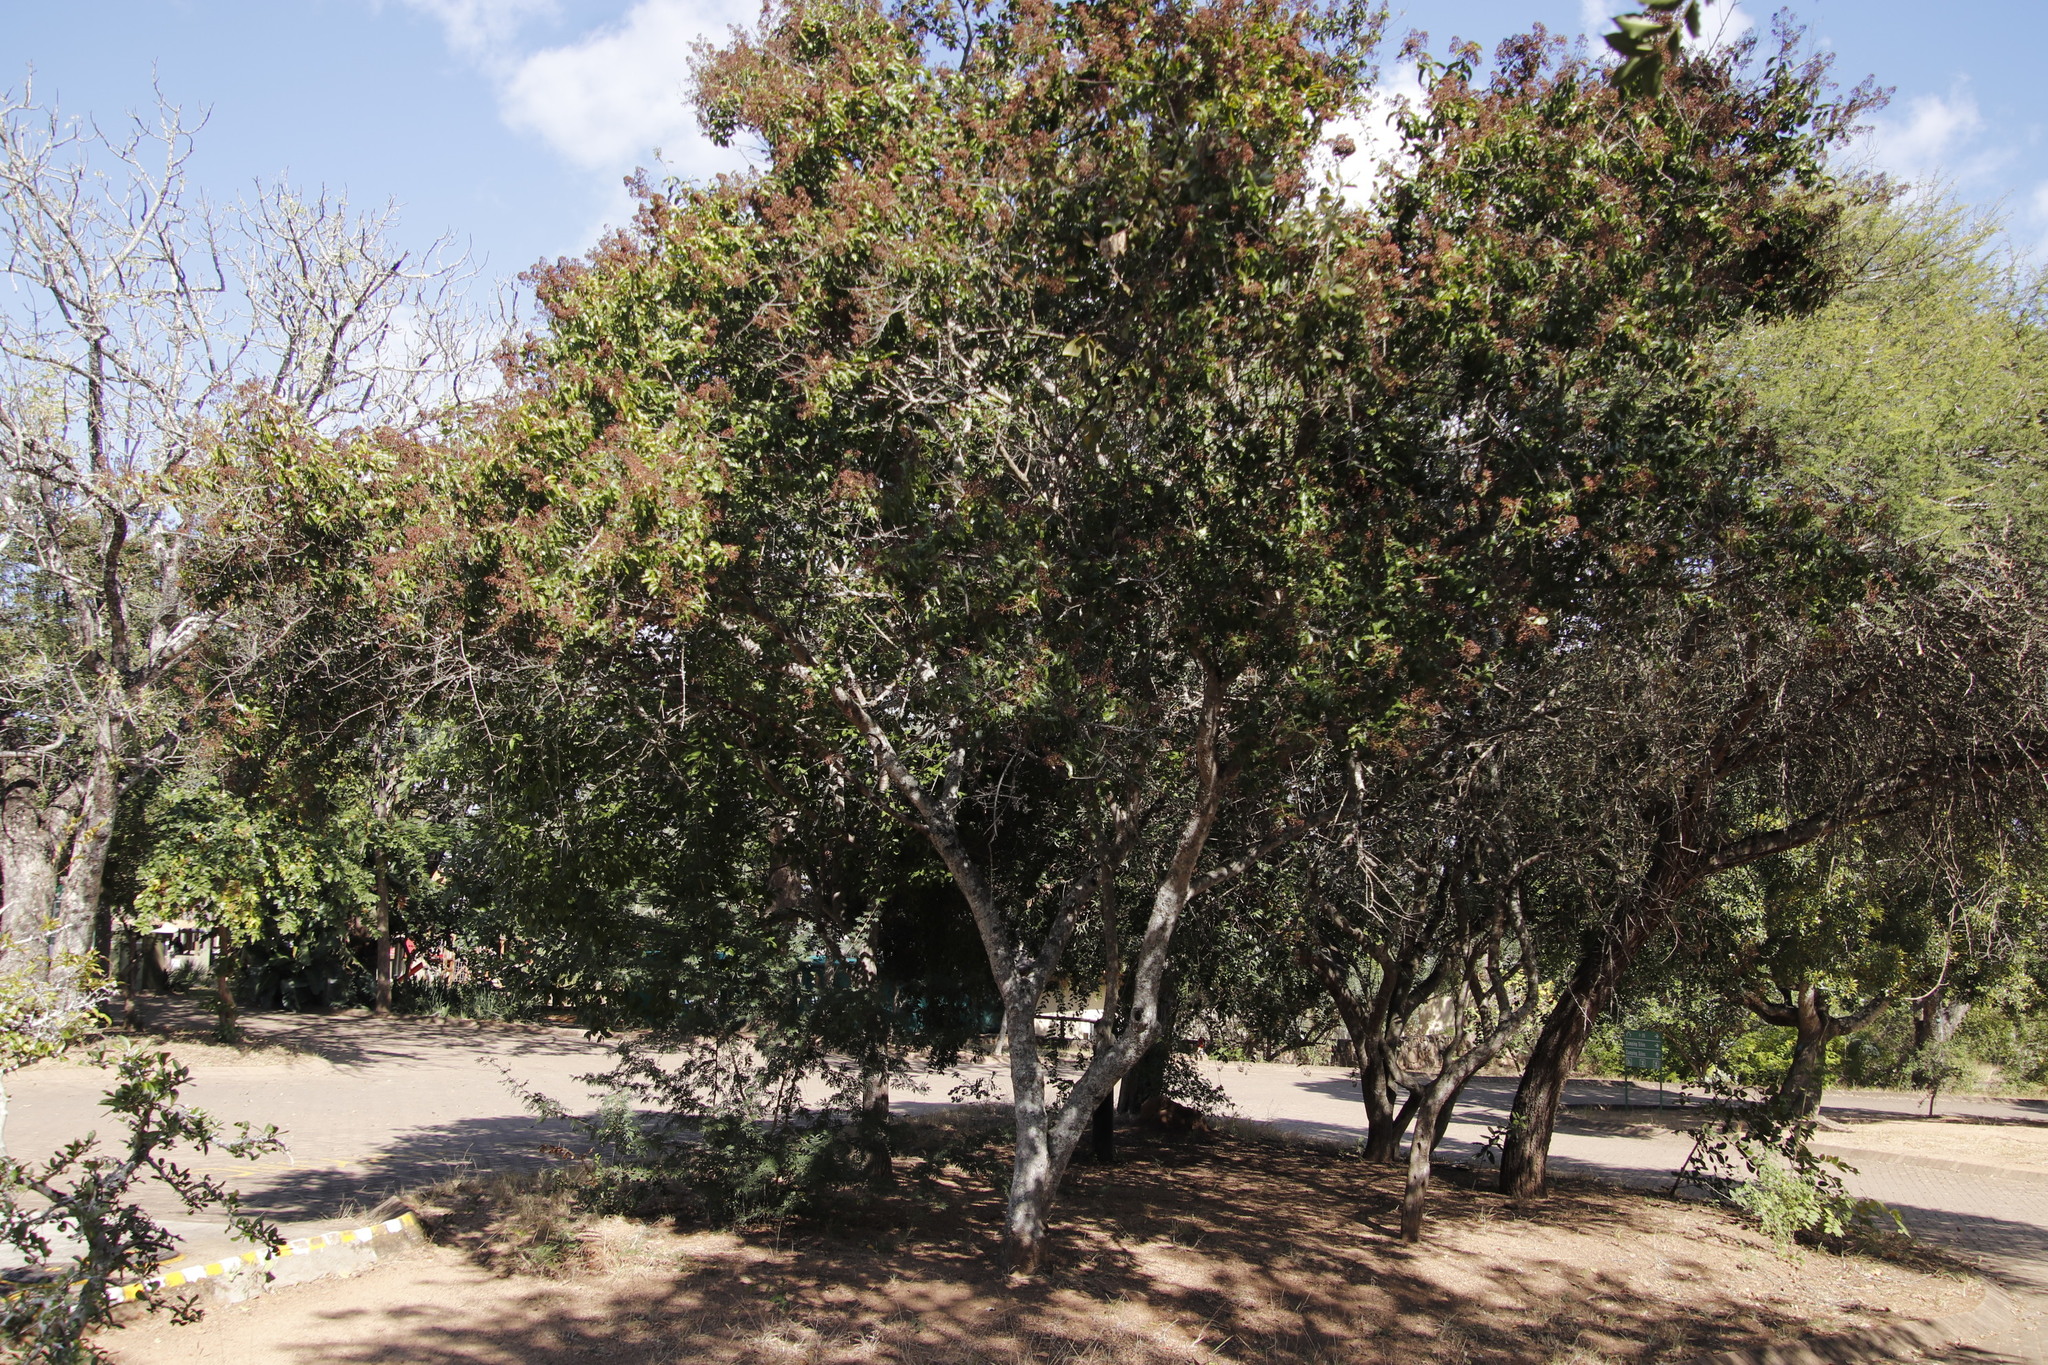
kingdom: Plantae
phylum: Tracheophyta
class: Magnoliopsida
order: Myrtales
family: Lythraceae
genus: Galpinia
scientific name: Galpinia transvaalica
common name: Wild pride of india
